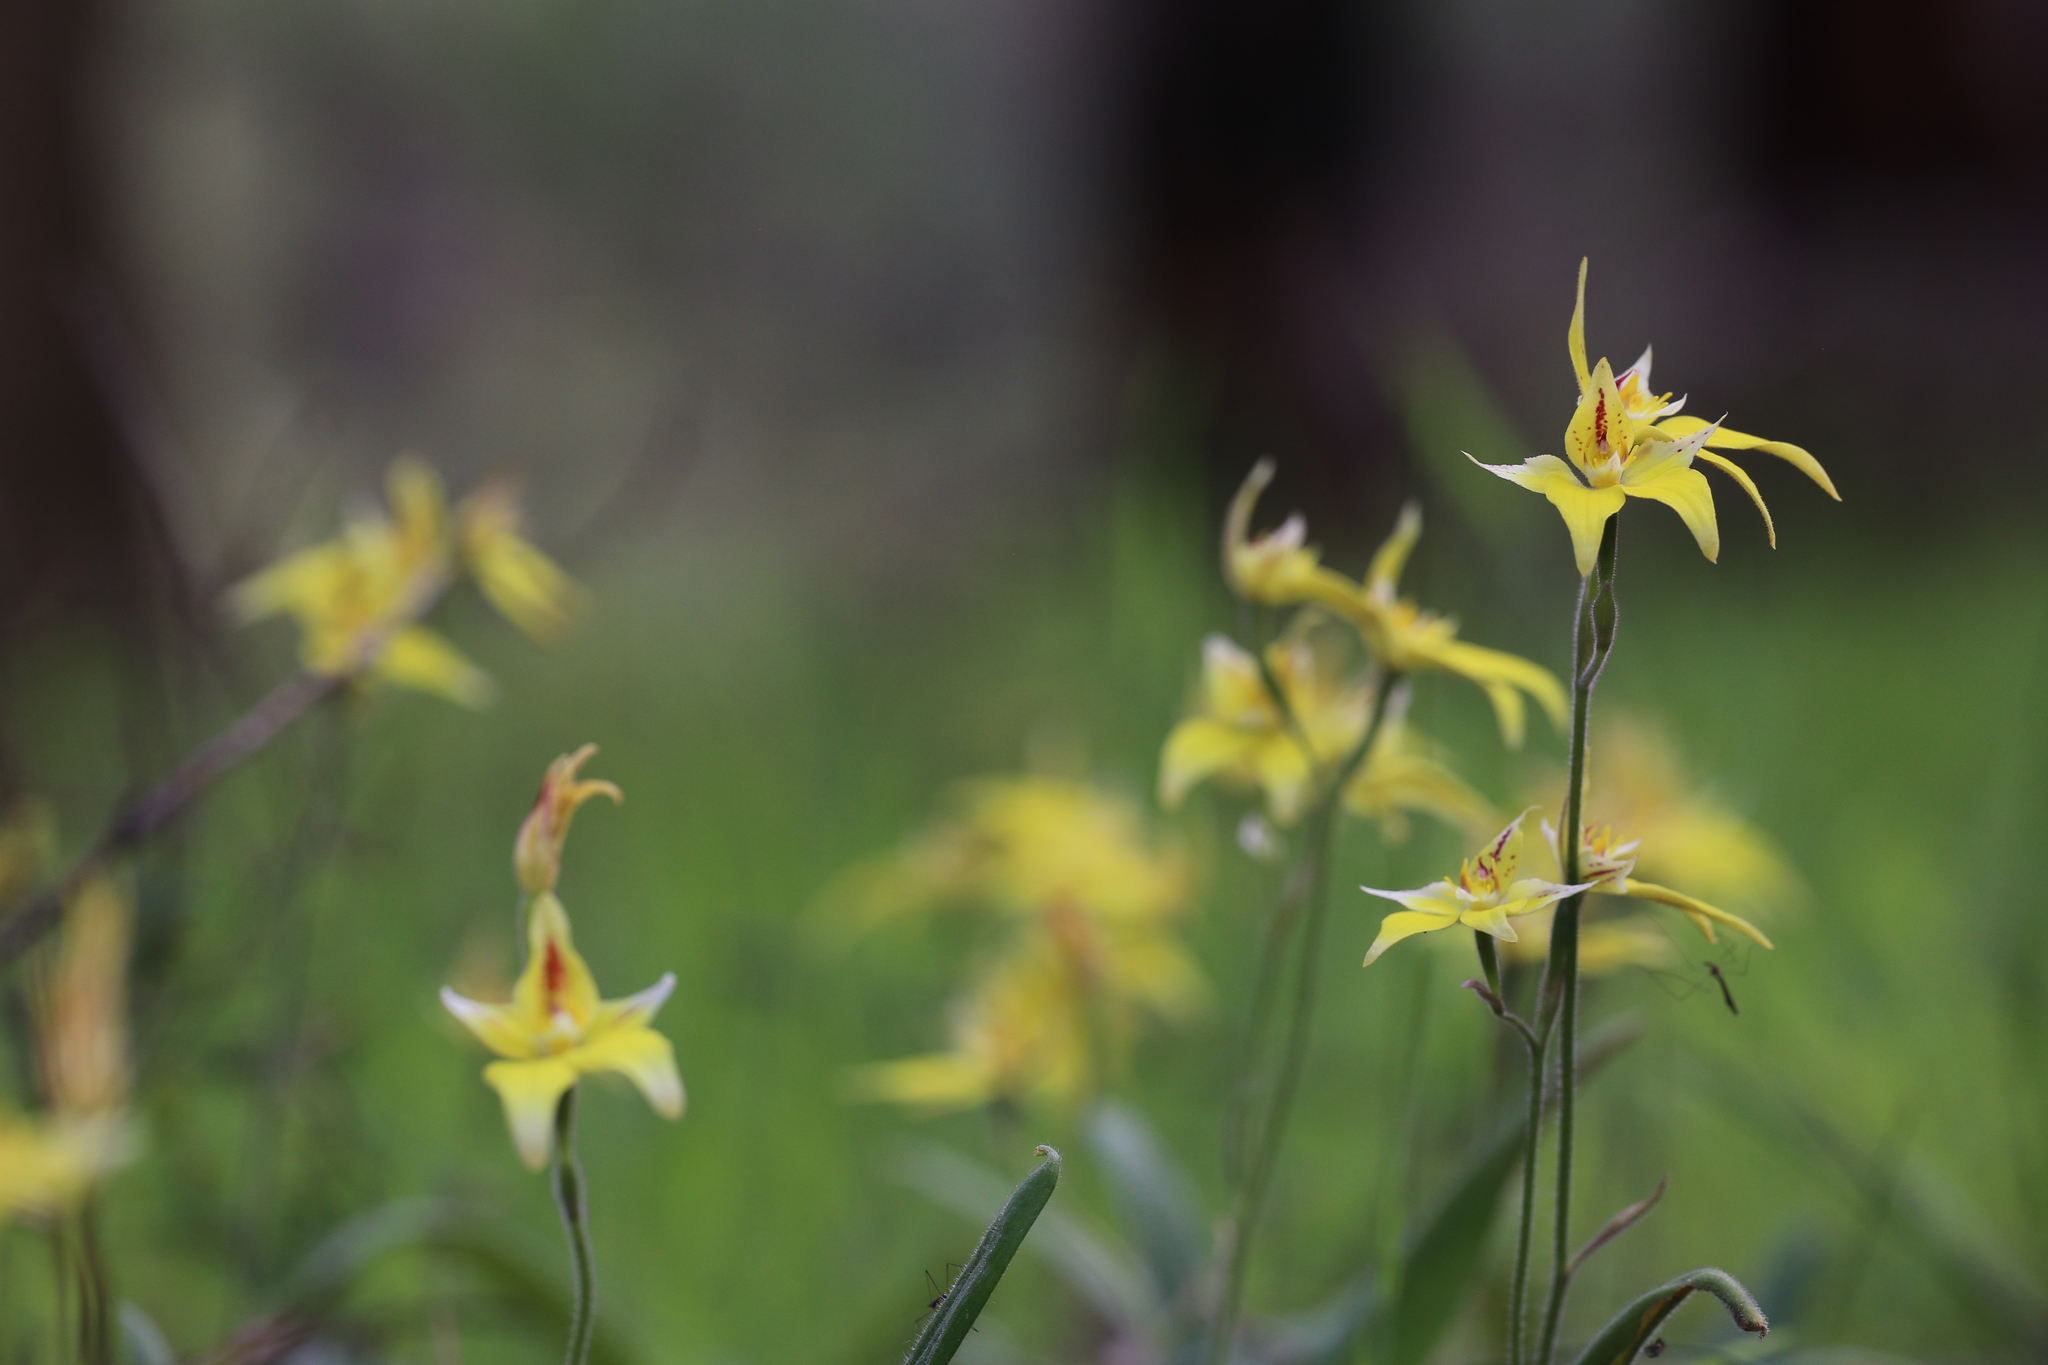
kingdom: Plantae
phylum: Tracheophyta
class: Liliopsida
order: Asparagales
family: Orchidaceae
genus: Caladenia
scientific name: Caladenia flava
